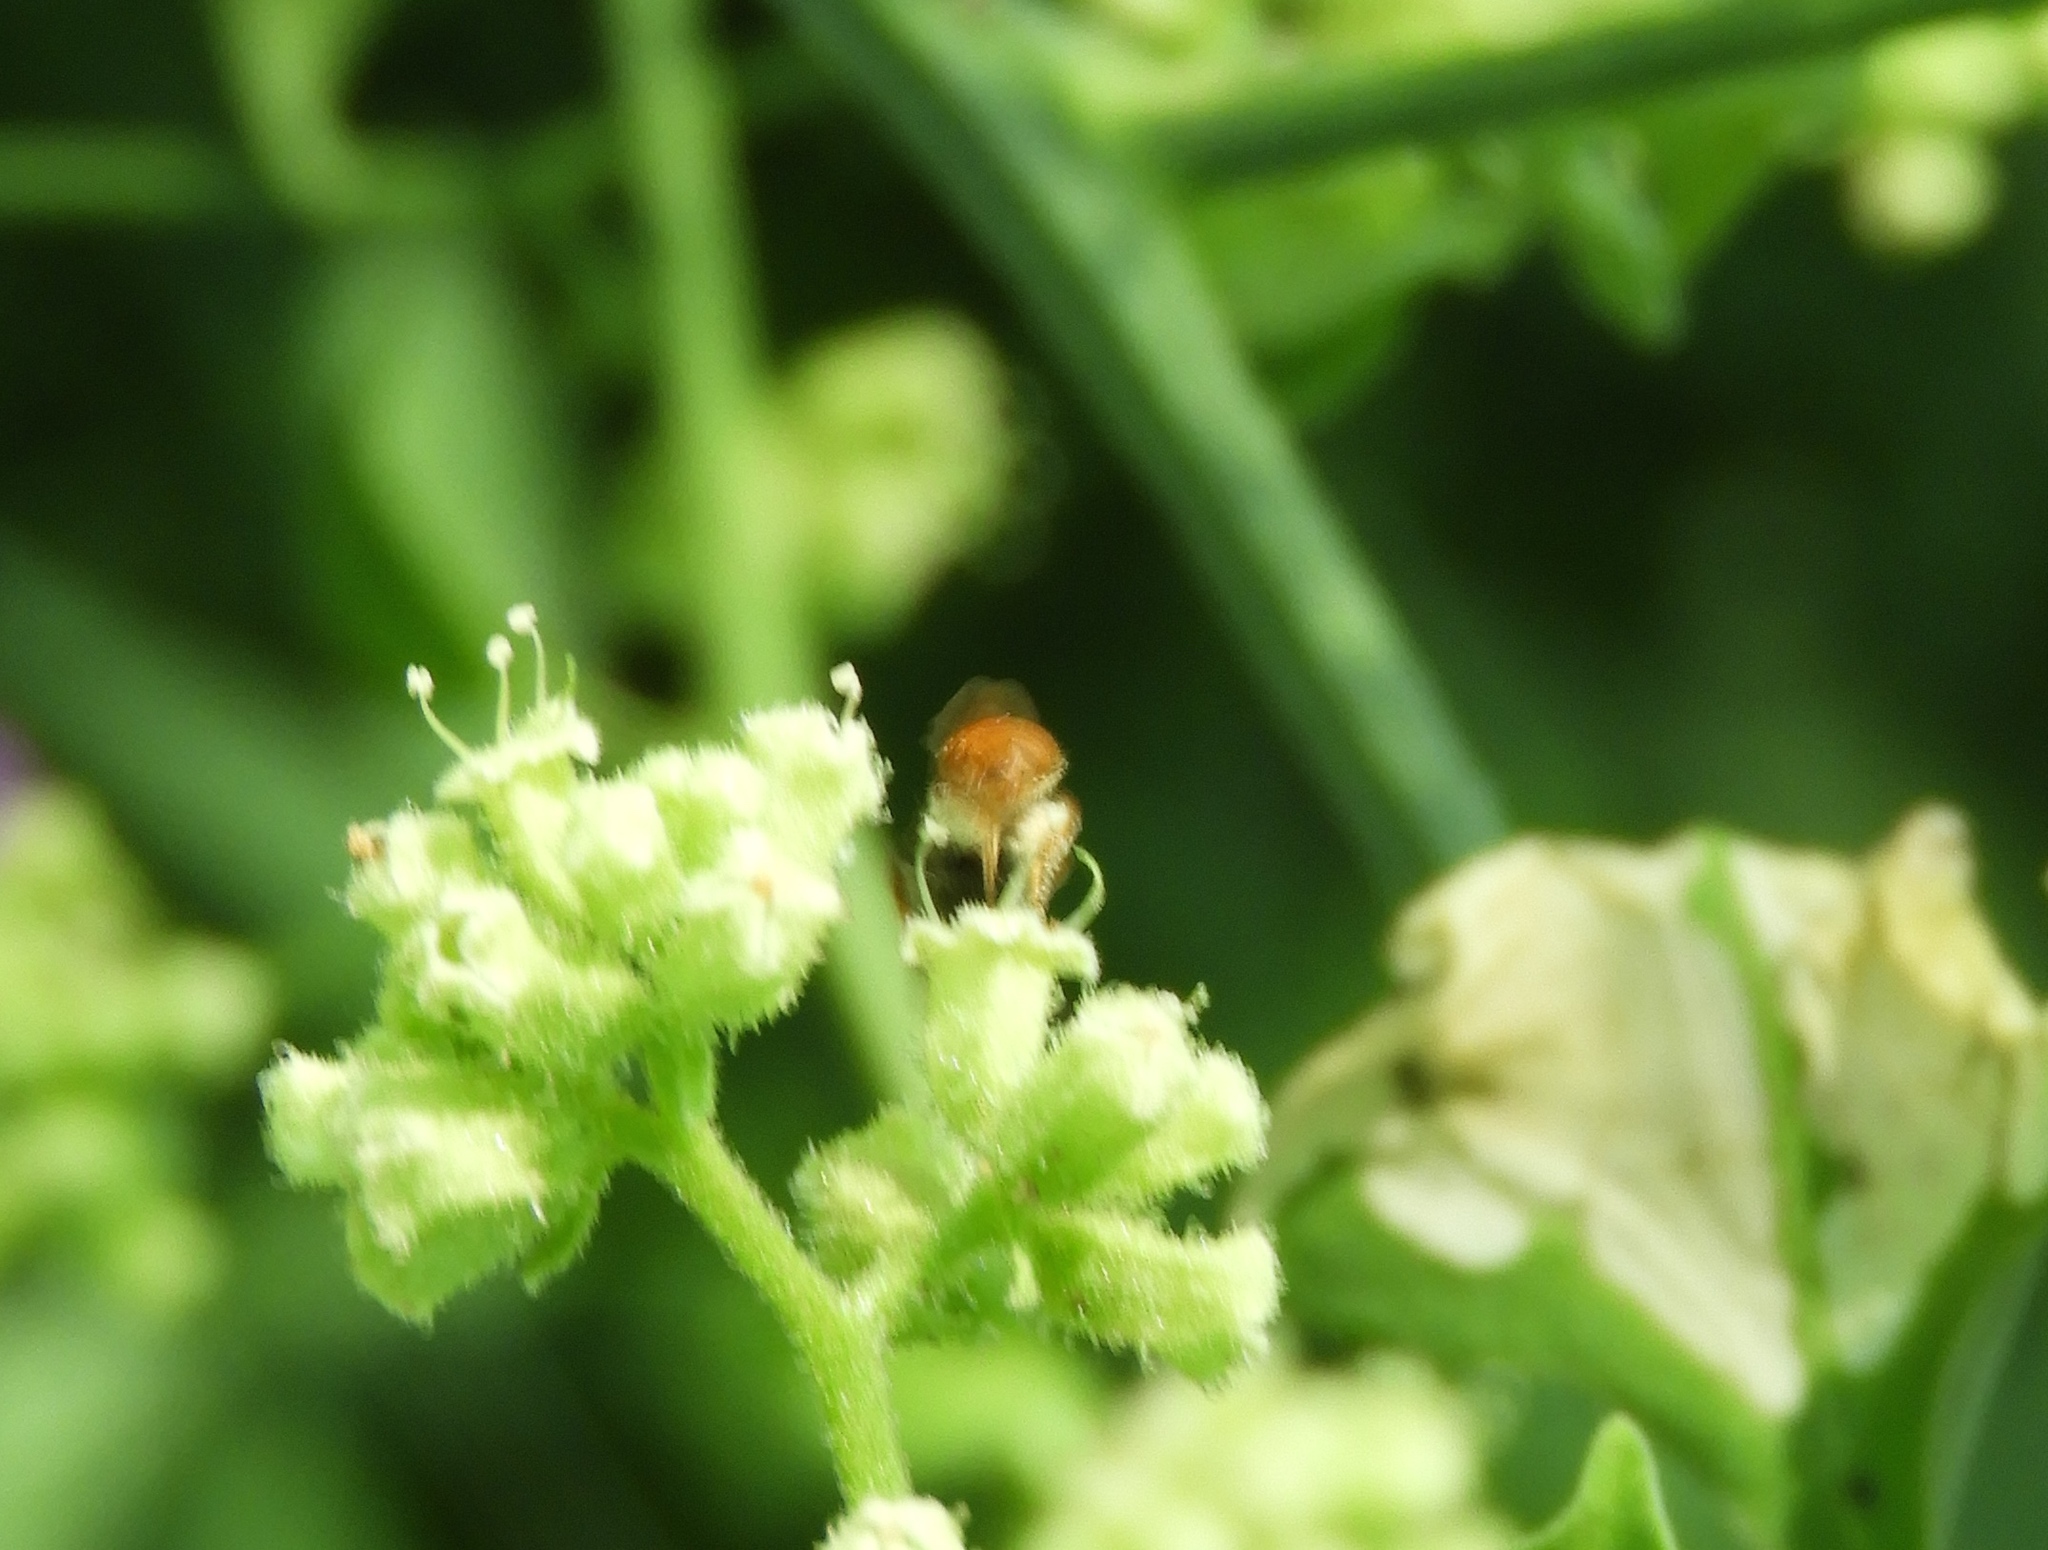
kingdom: Animalia
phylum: Arthropoda
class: Insecta
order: Hymenoptera
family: Halictidae
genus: Dialictus
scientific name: Dialictus
